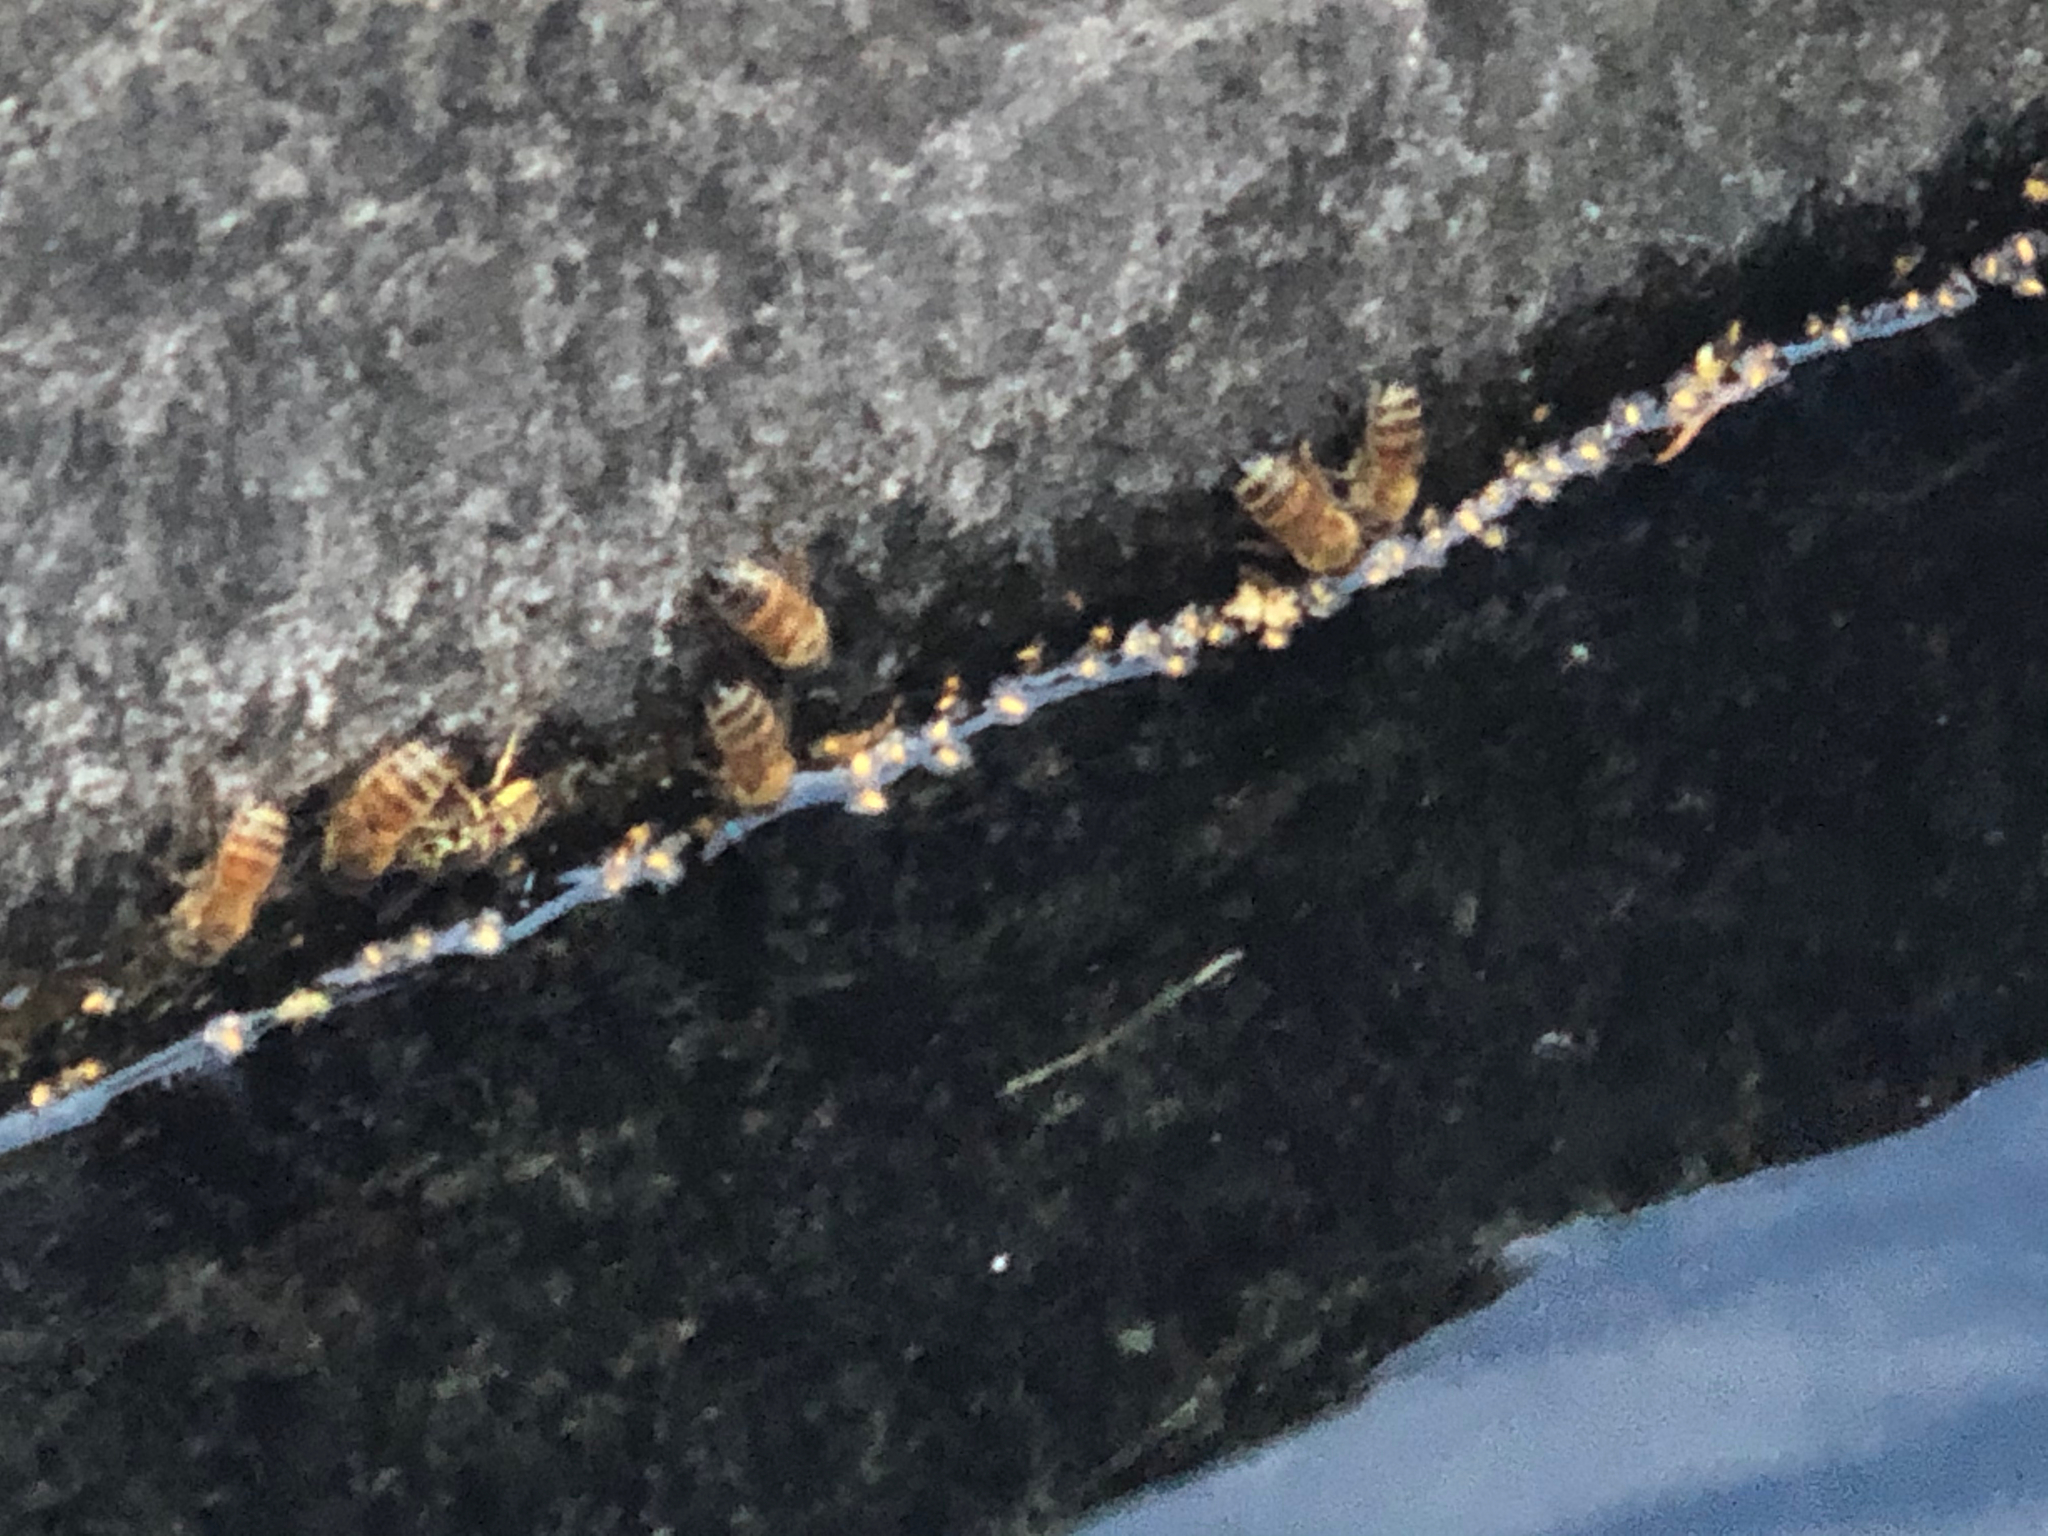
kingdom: Animalia
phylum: Arthropoda
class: Insecta
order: Hymenoptera
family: Apidae
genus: Apis
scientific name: Apis mellifera
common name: Honey bee
